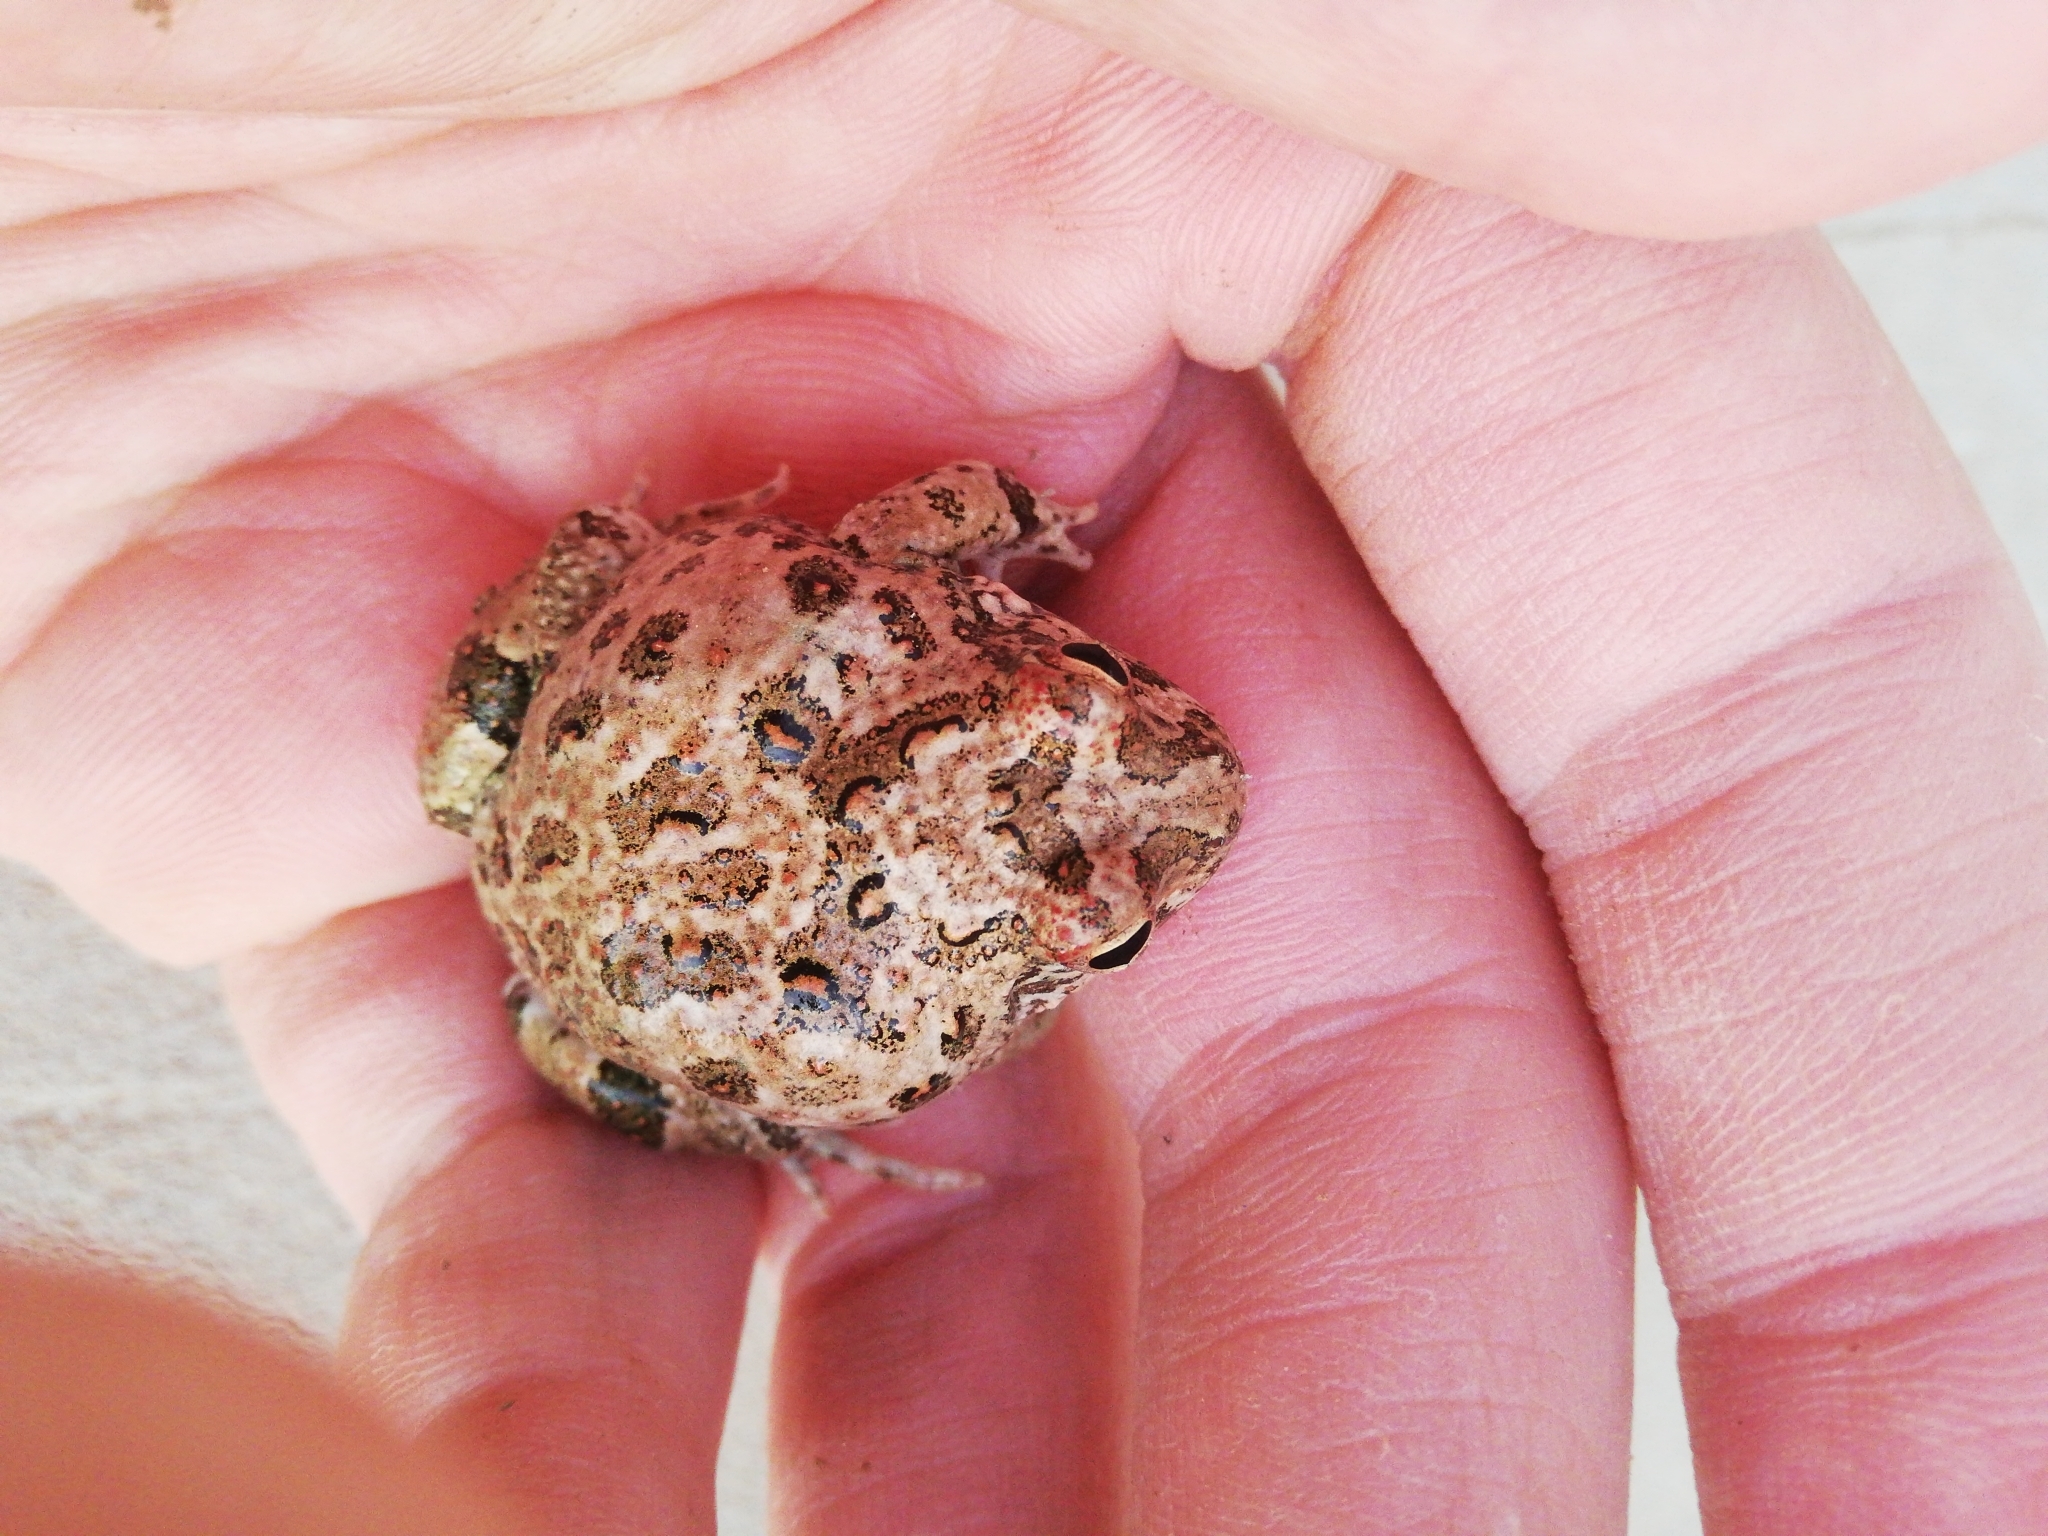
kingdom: Animalia
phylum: Chordata
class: Amphibia
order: Anura
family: Pyxicephalidae
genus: Tomopterna
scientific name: Tomopterna delalandii
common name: Delalande's burrowing bullfrog
